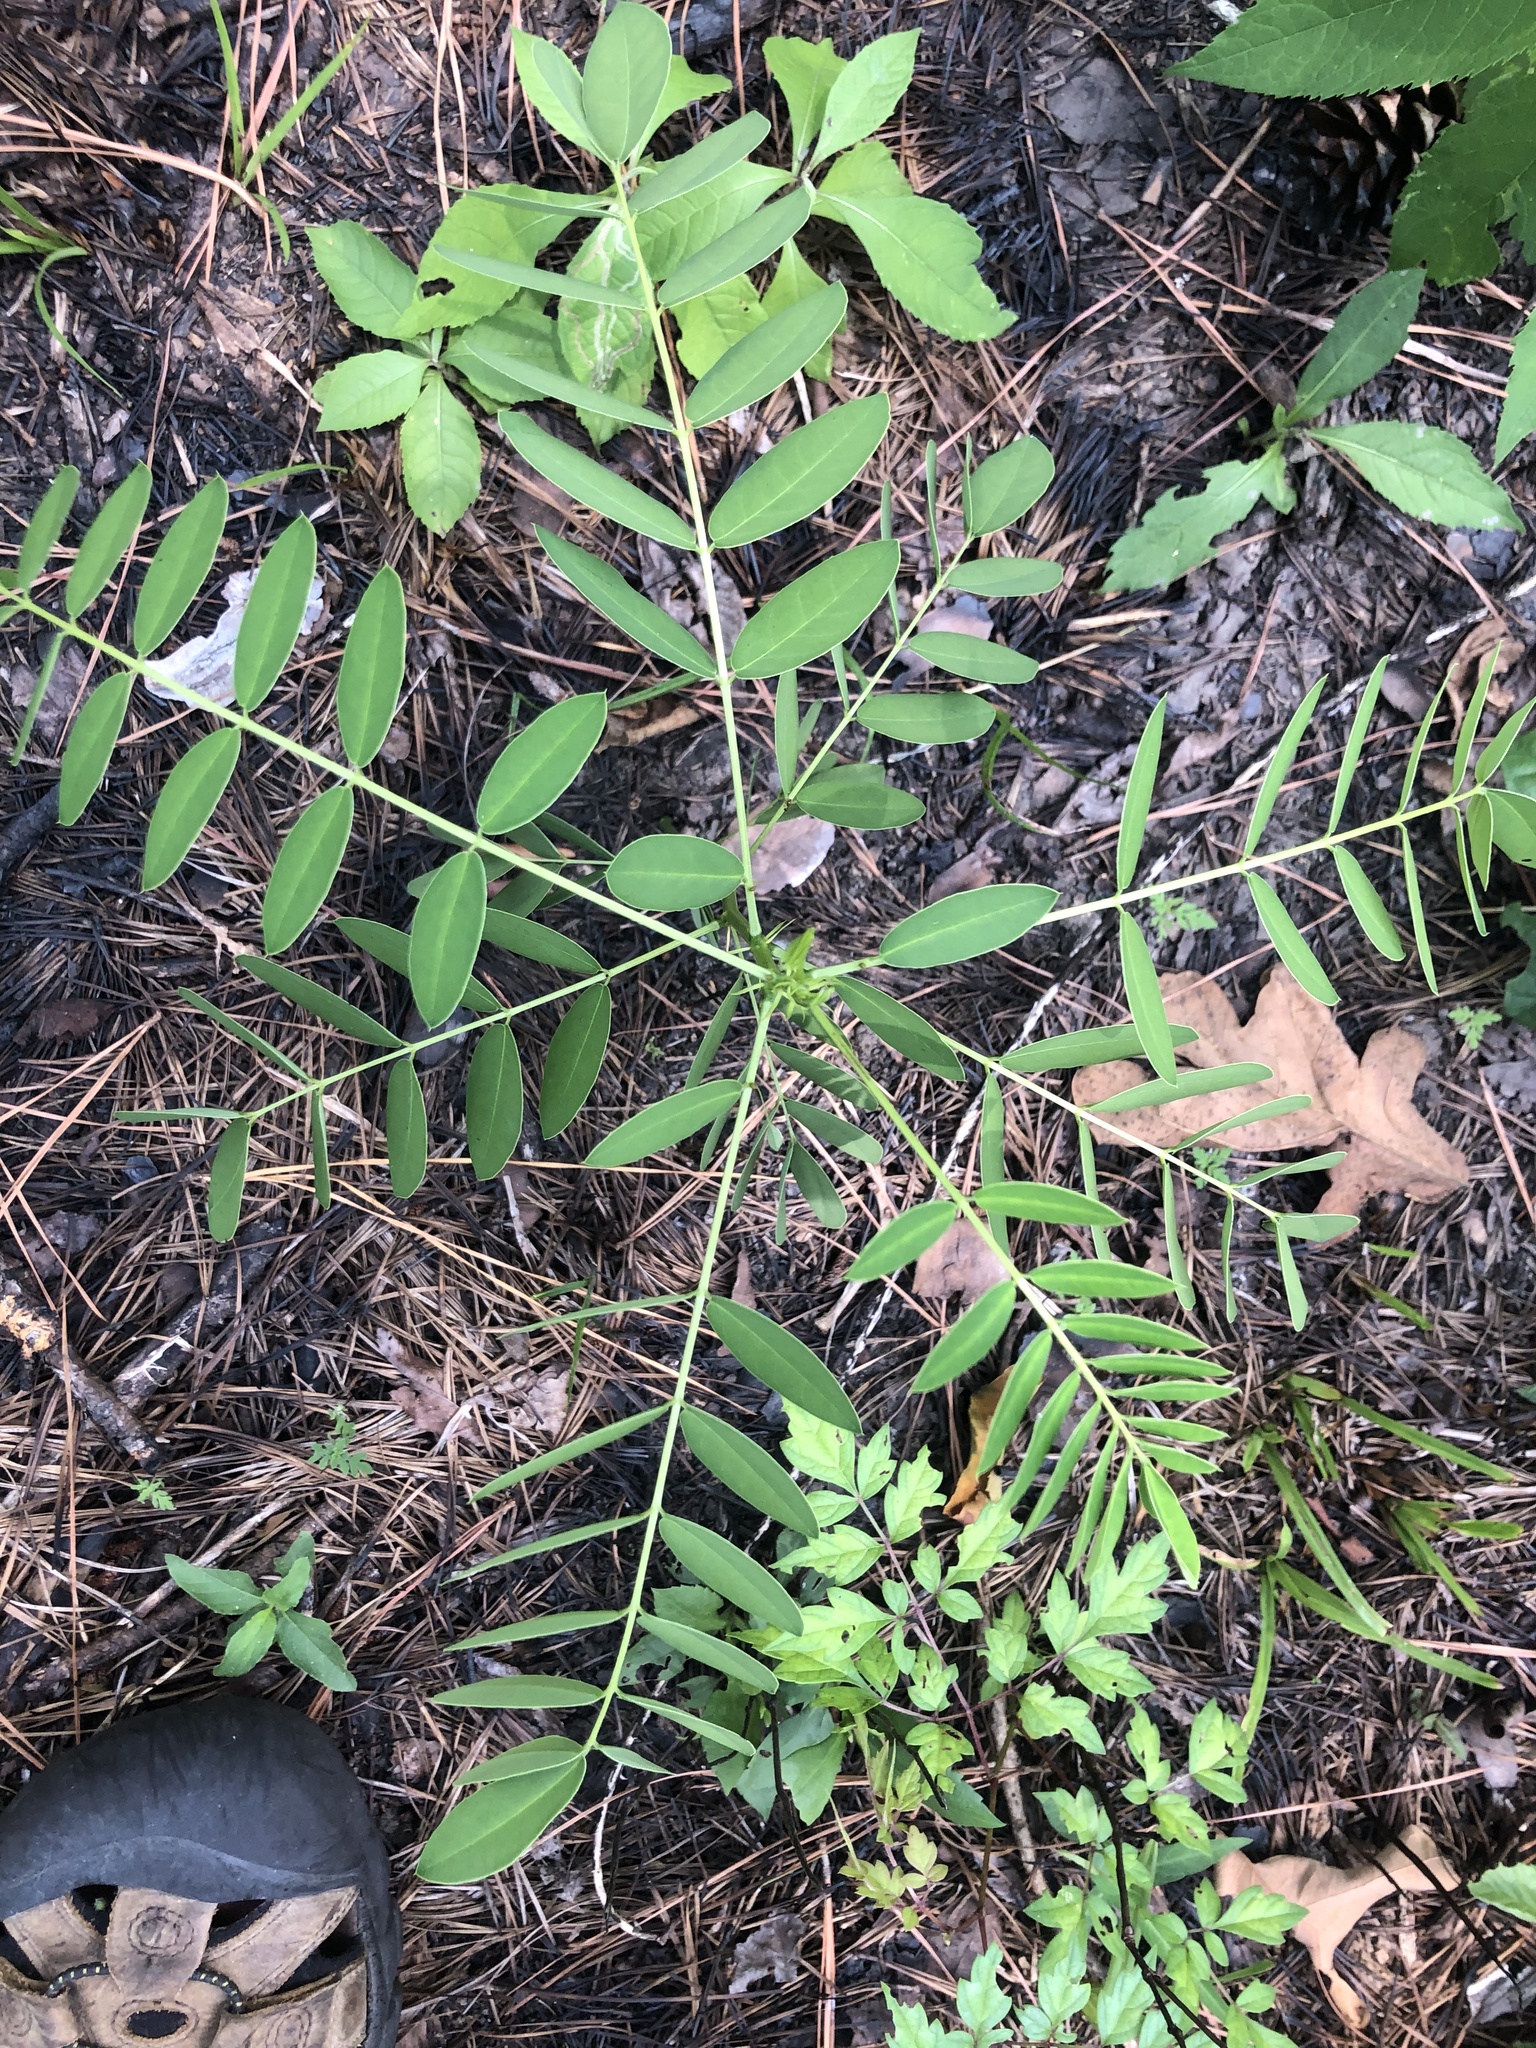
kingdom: Plantae
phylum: Tracheophyta
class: Magnoliopsida
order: Fabales
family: Fabaceae
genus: Senna
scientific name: Senna marilandica
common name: American senna
